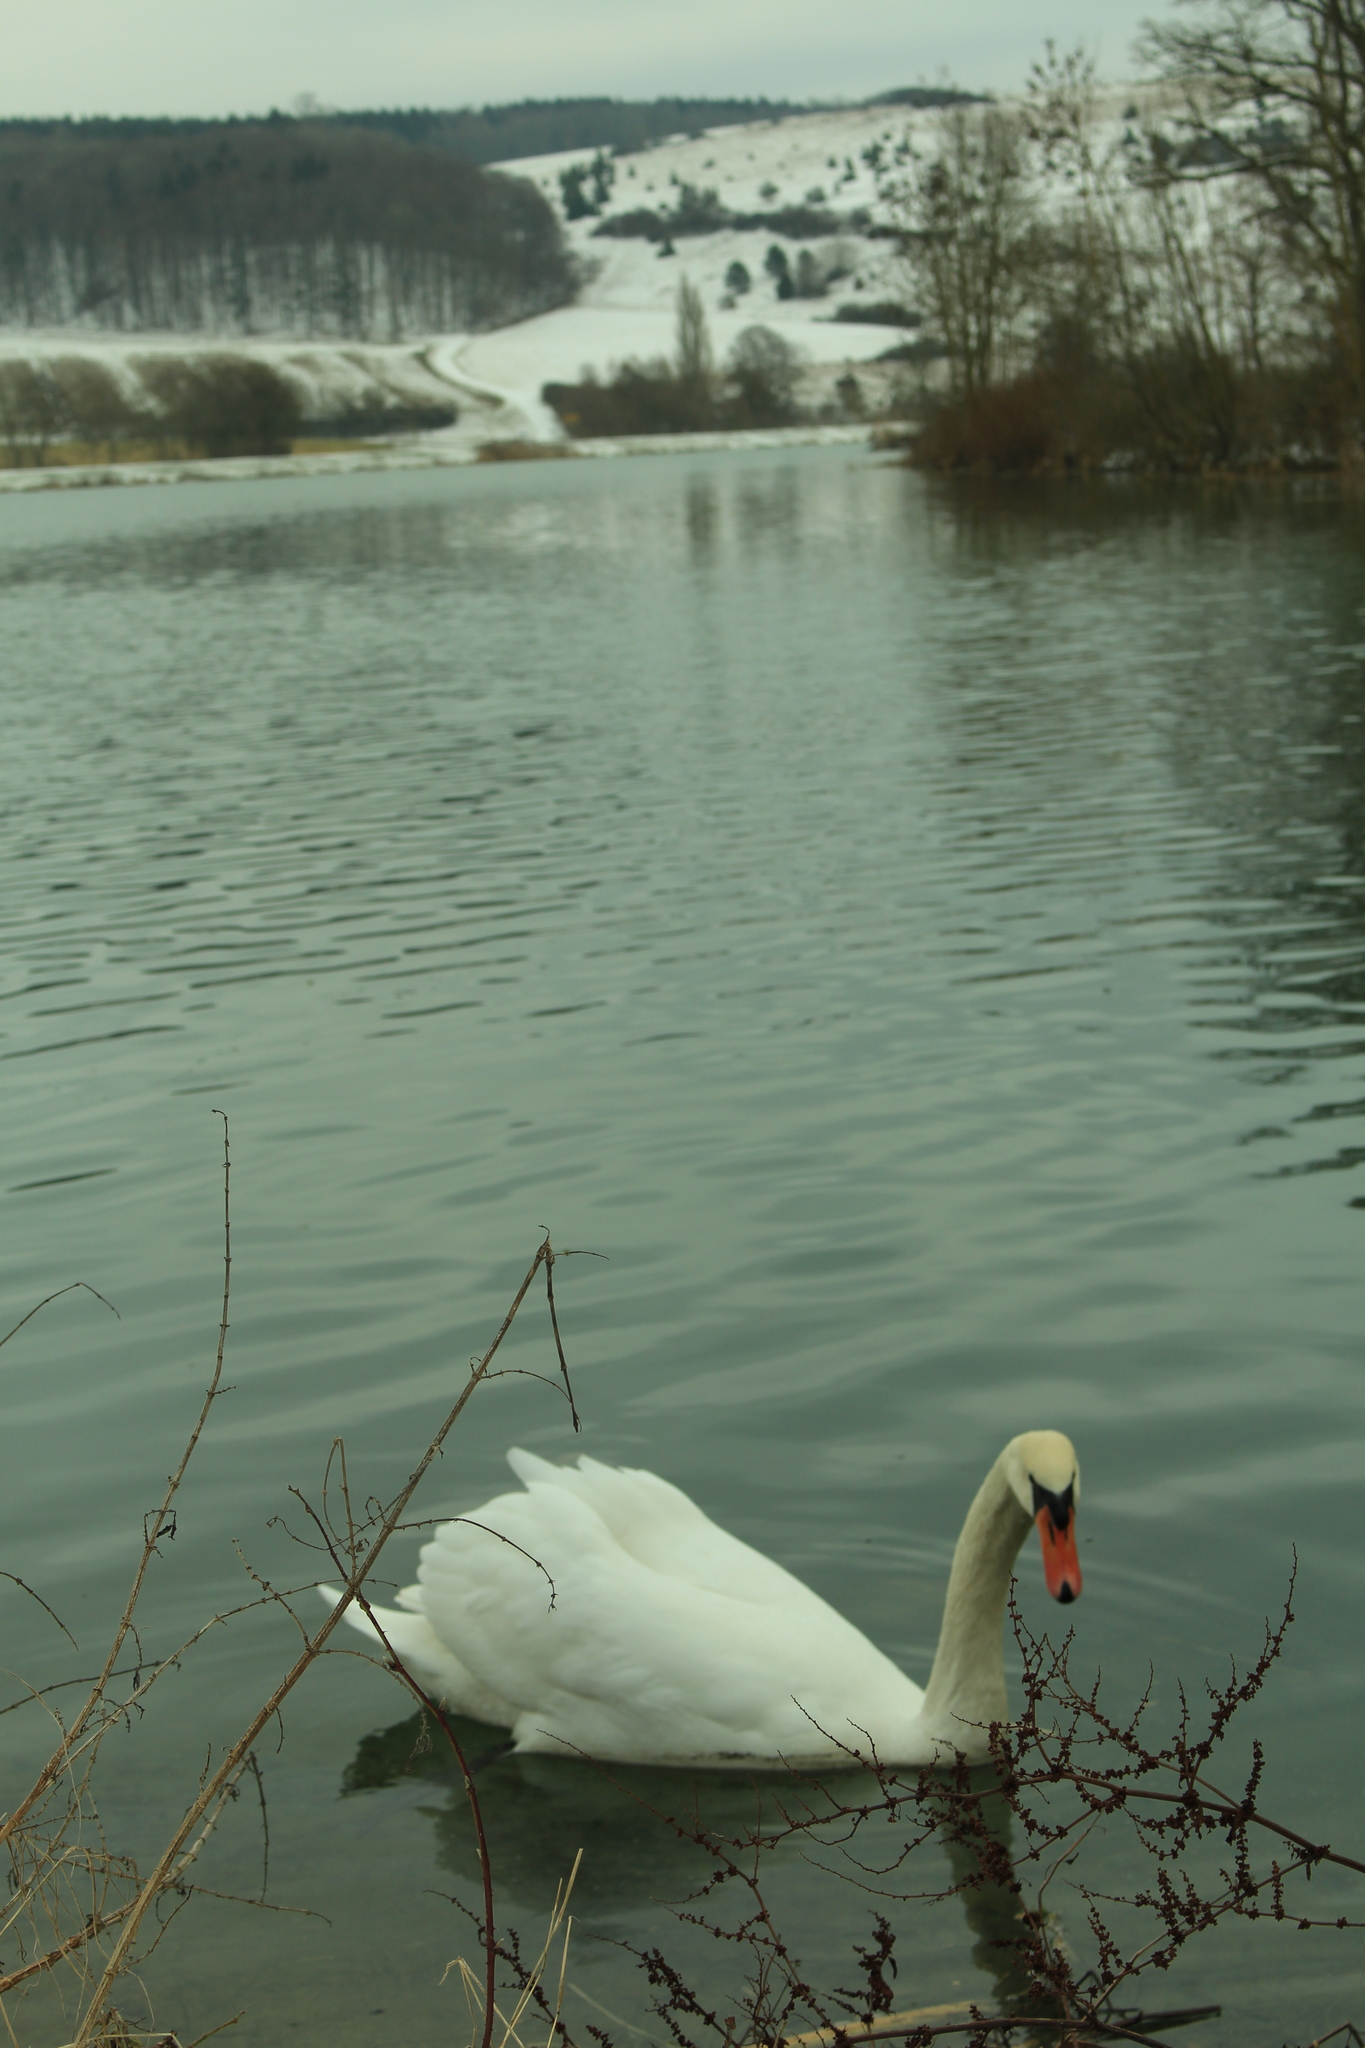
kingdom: Animalia
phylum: Chordata
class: Aves
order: Anseriformes
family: Anatidae
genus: Cygnus
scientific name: Cygnus olor
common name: Mute swan
